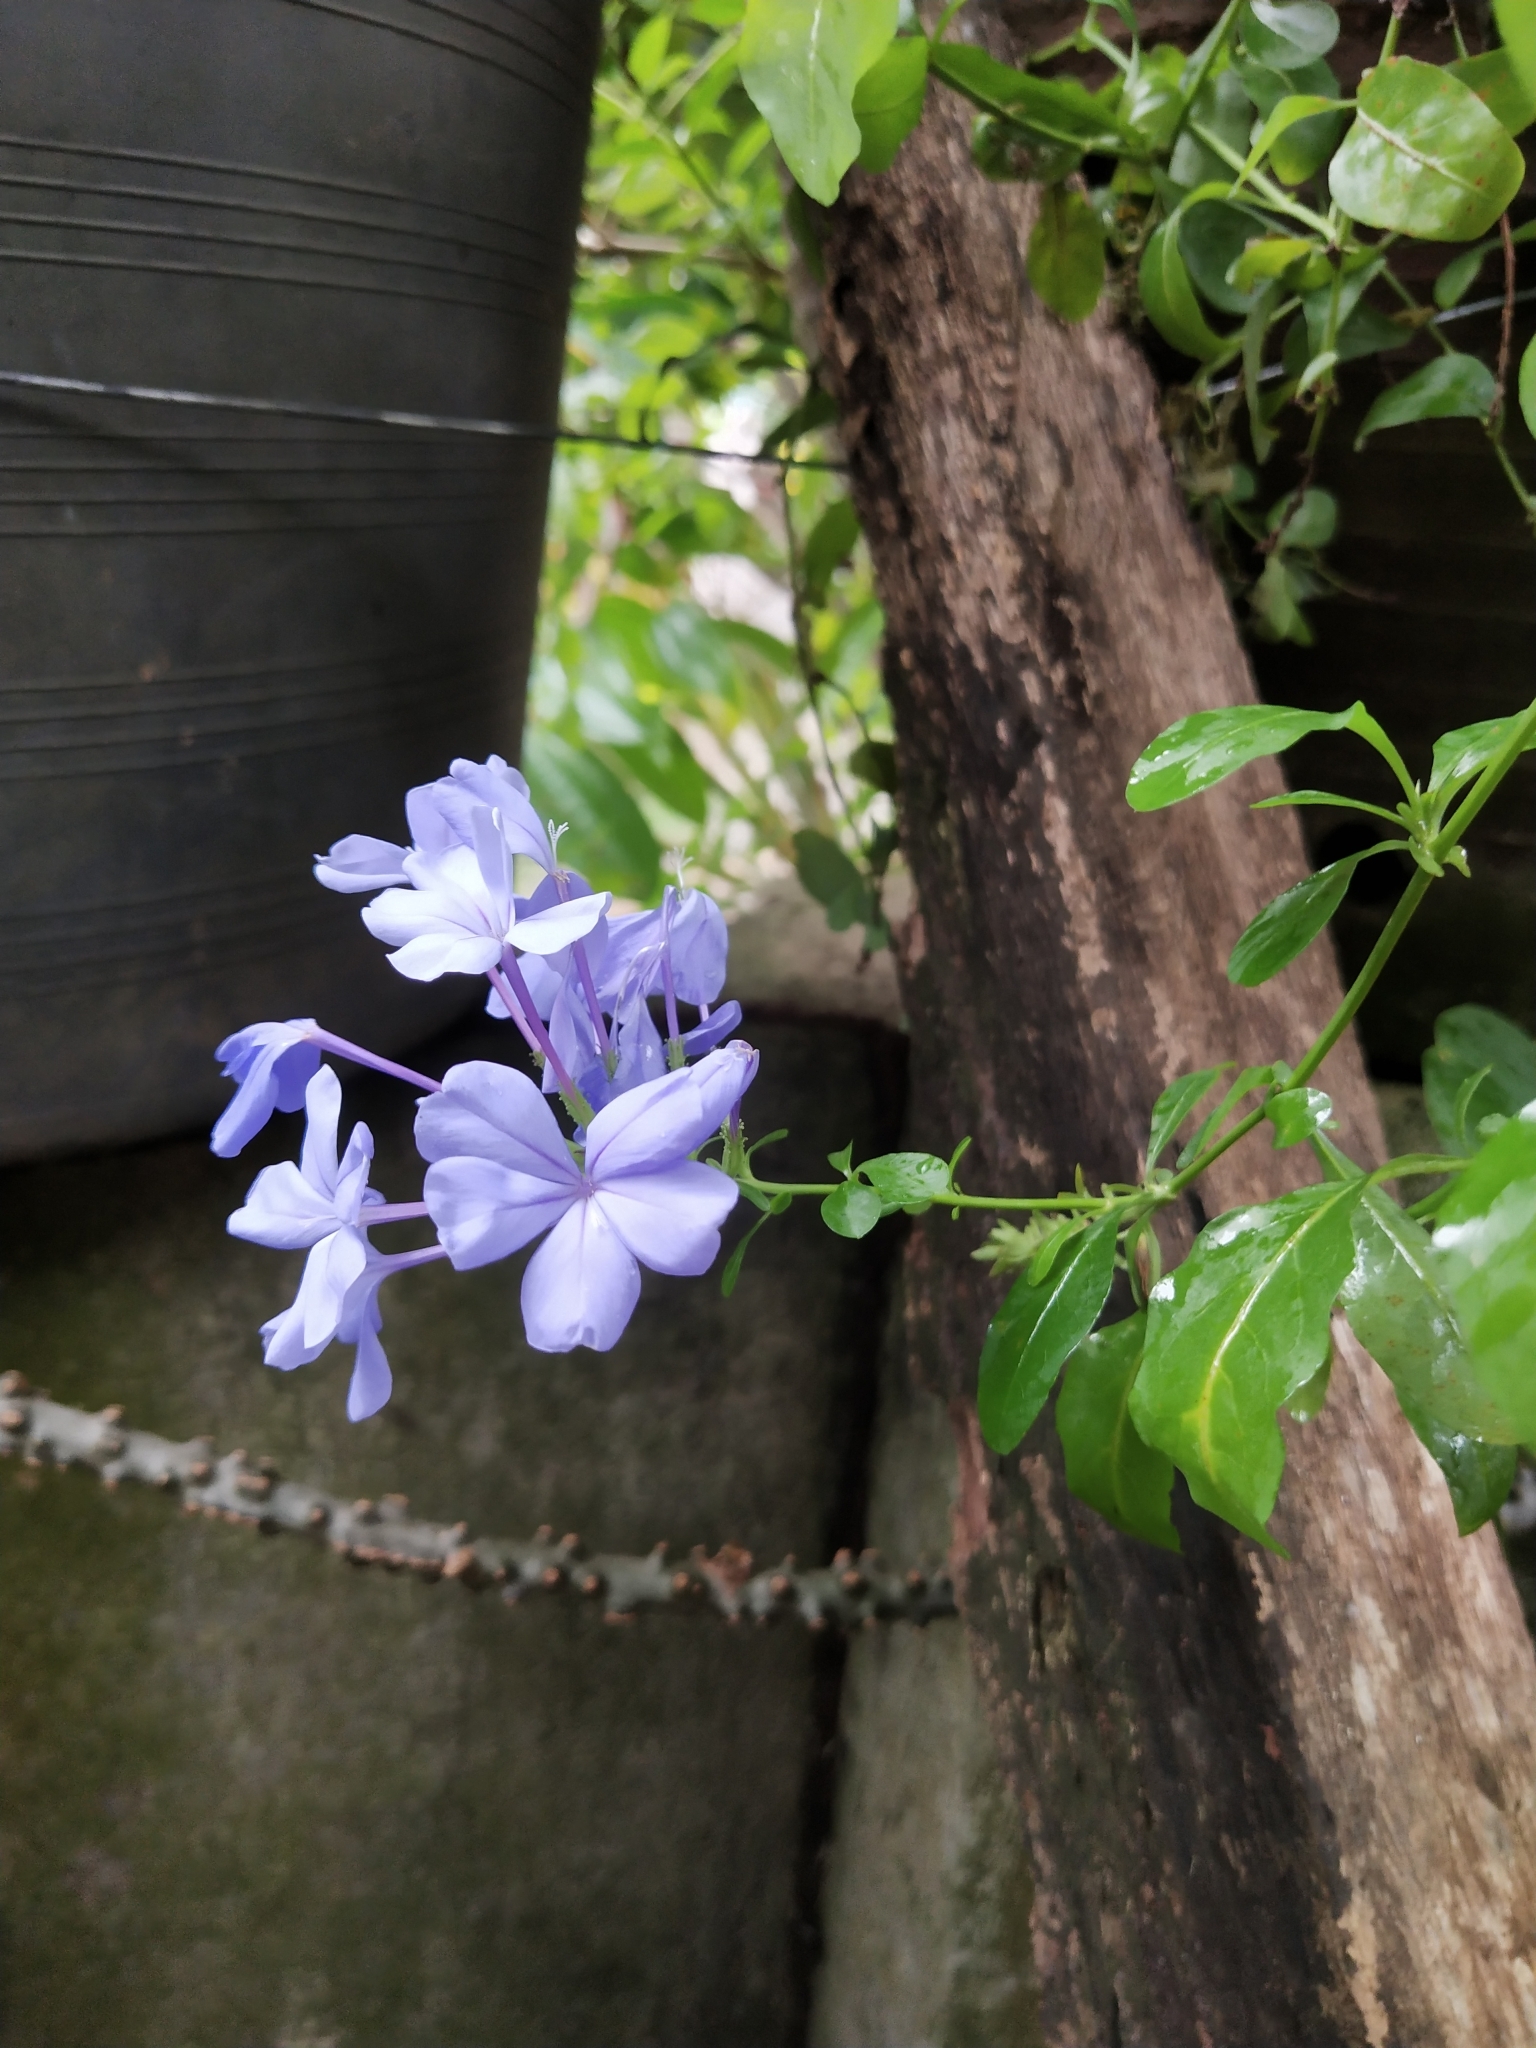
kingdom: Plantae
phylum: Tracheophyta
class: Magnoliopsida
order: Caryophyllales
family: Plumbaginaceae
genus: Plumbago
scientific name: Plumbago auriculata
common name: Cape leadwort
